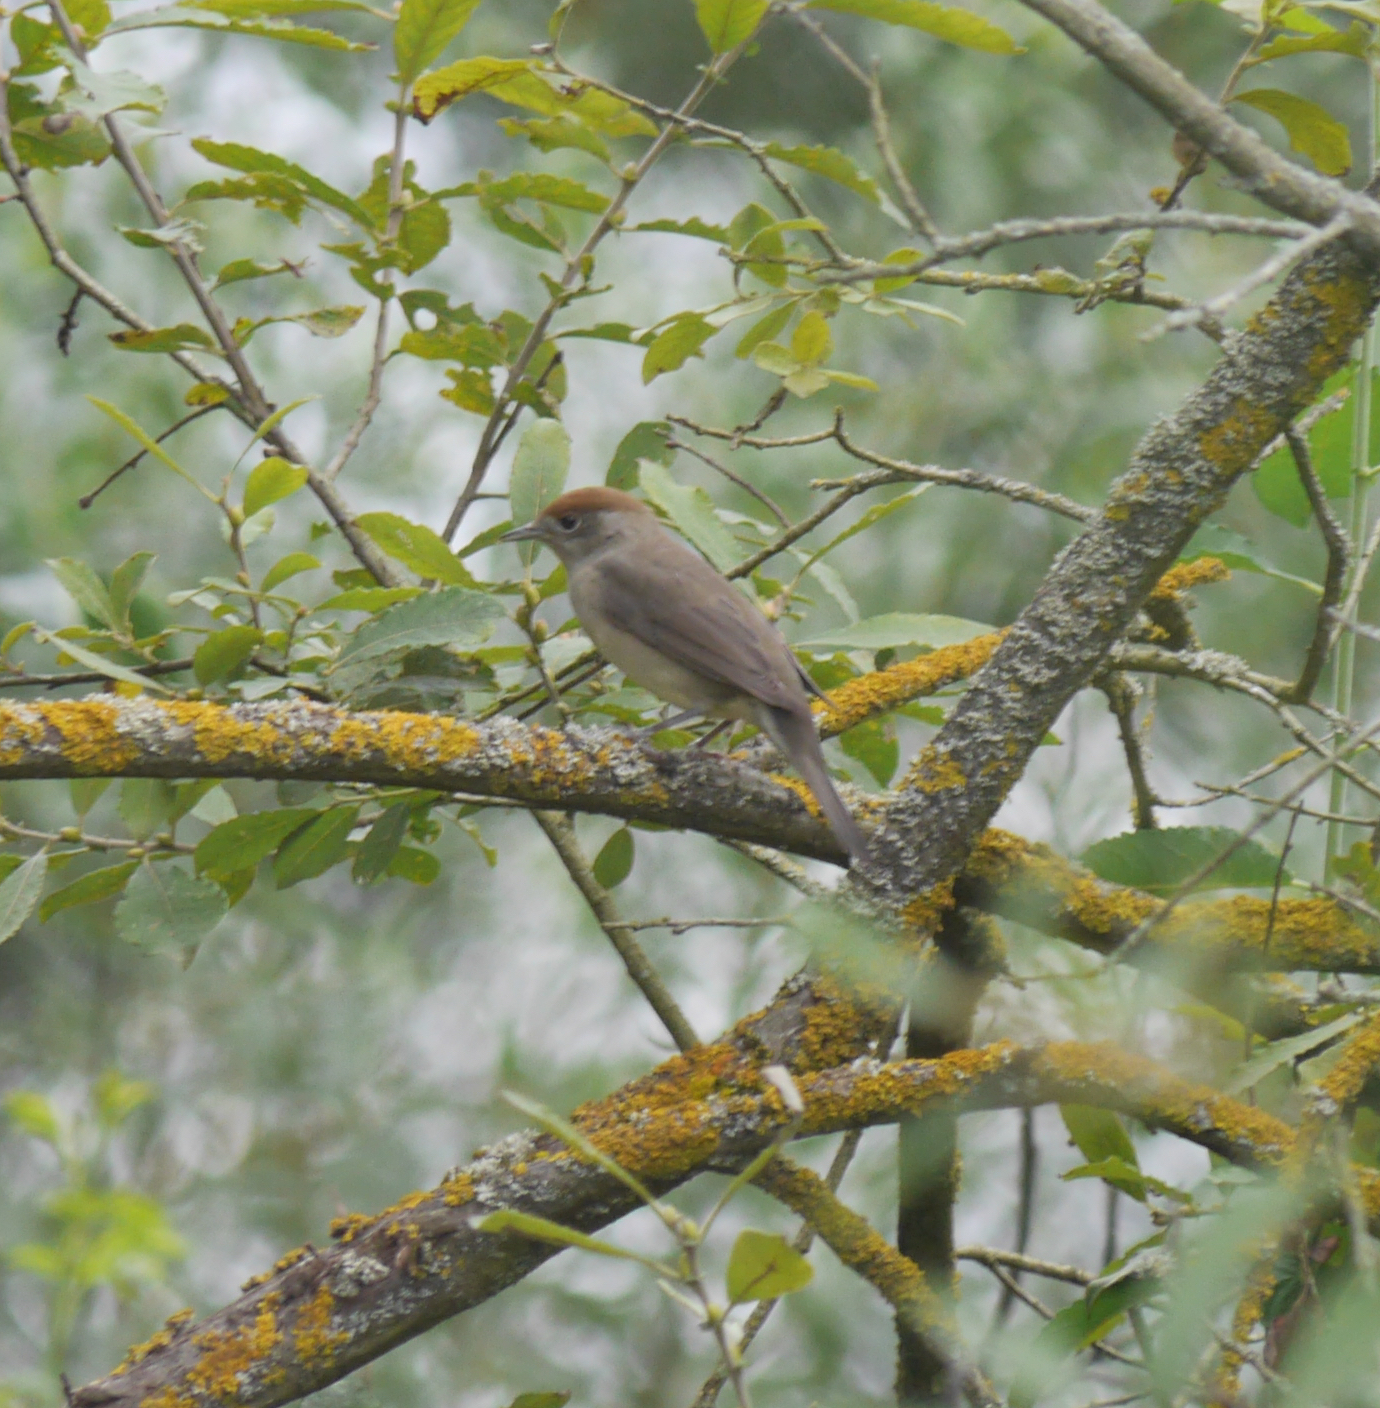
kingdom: Animalia
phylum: Chordata
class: Aves
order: Passeriformes
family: Sylviidae
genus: Sylvia
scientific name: Sylvia atricapilla
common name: Eurasian blackcap
